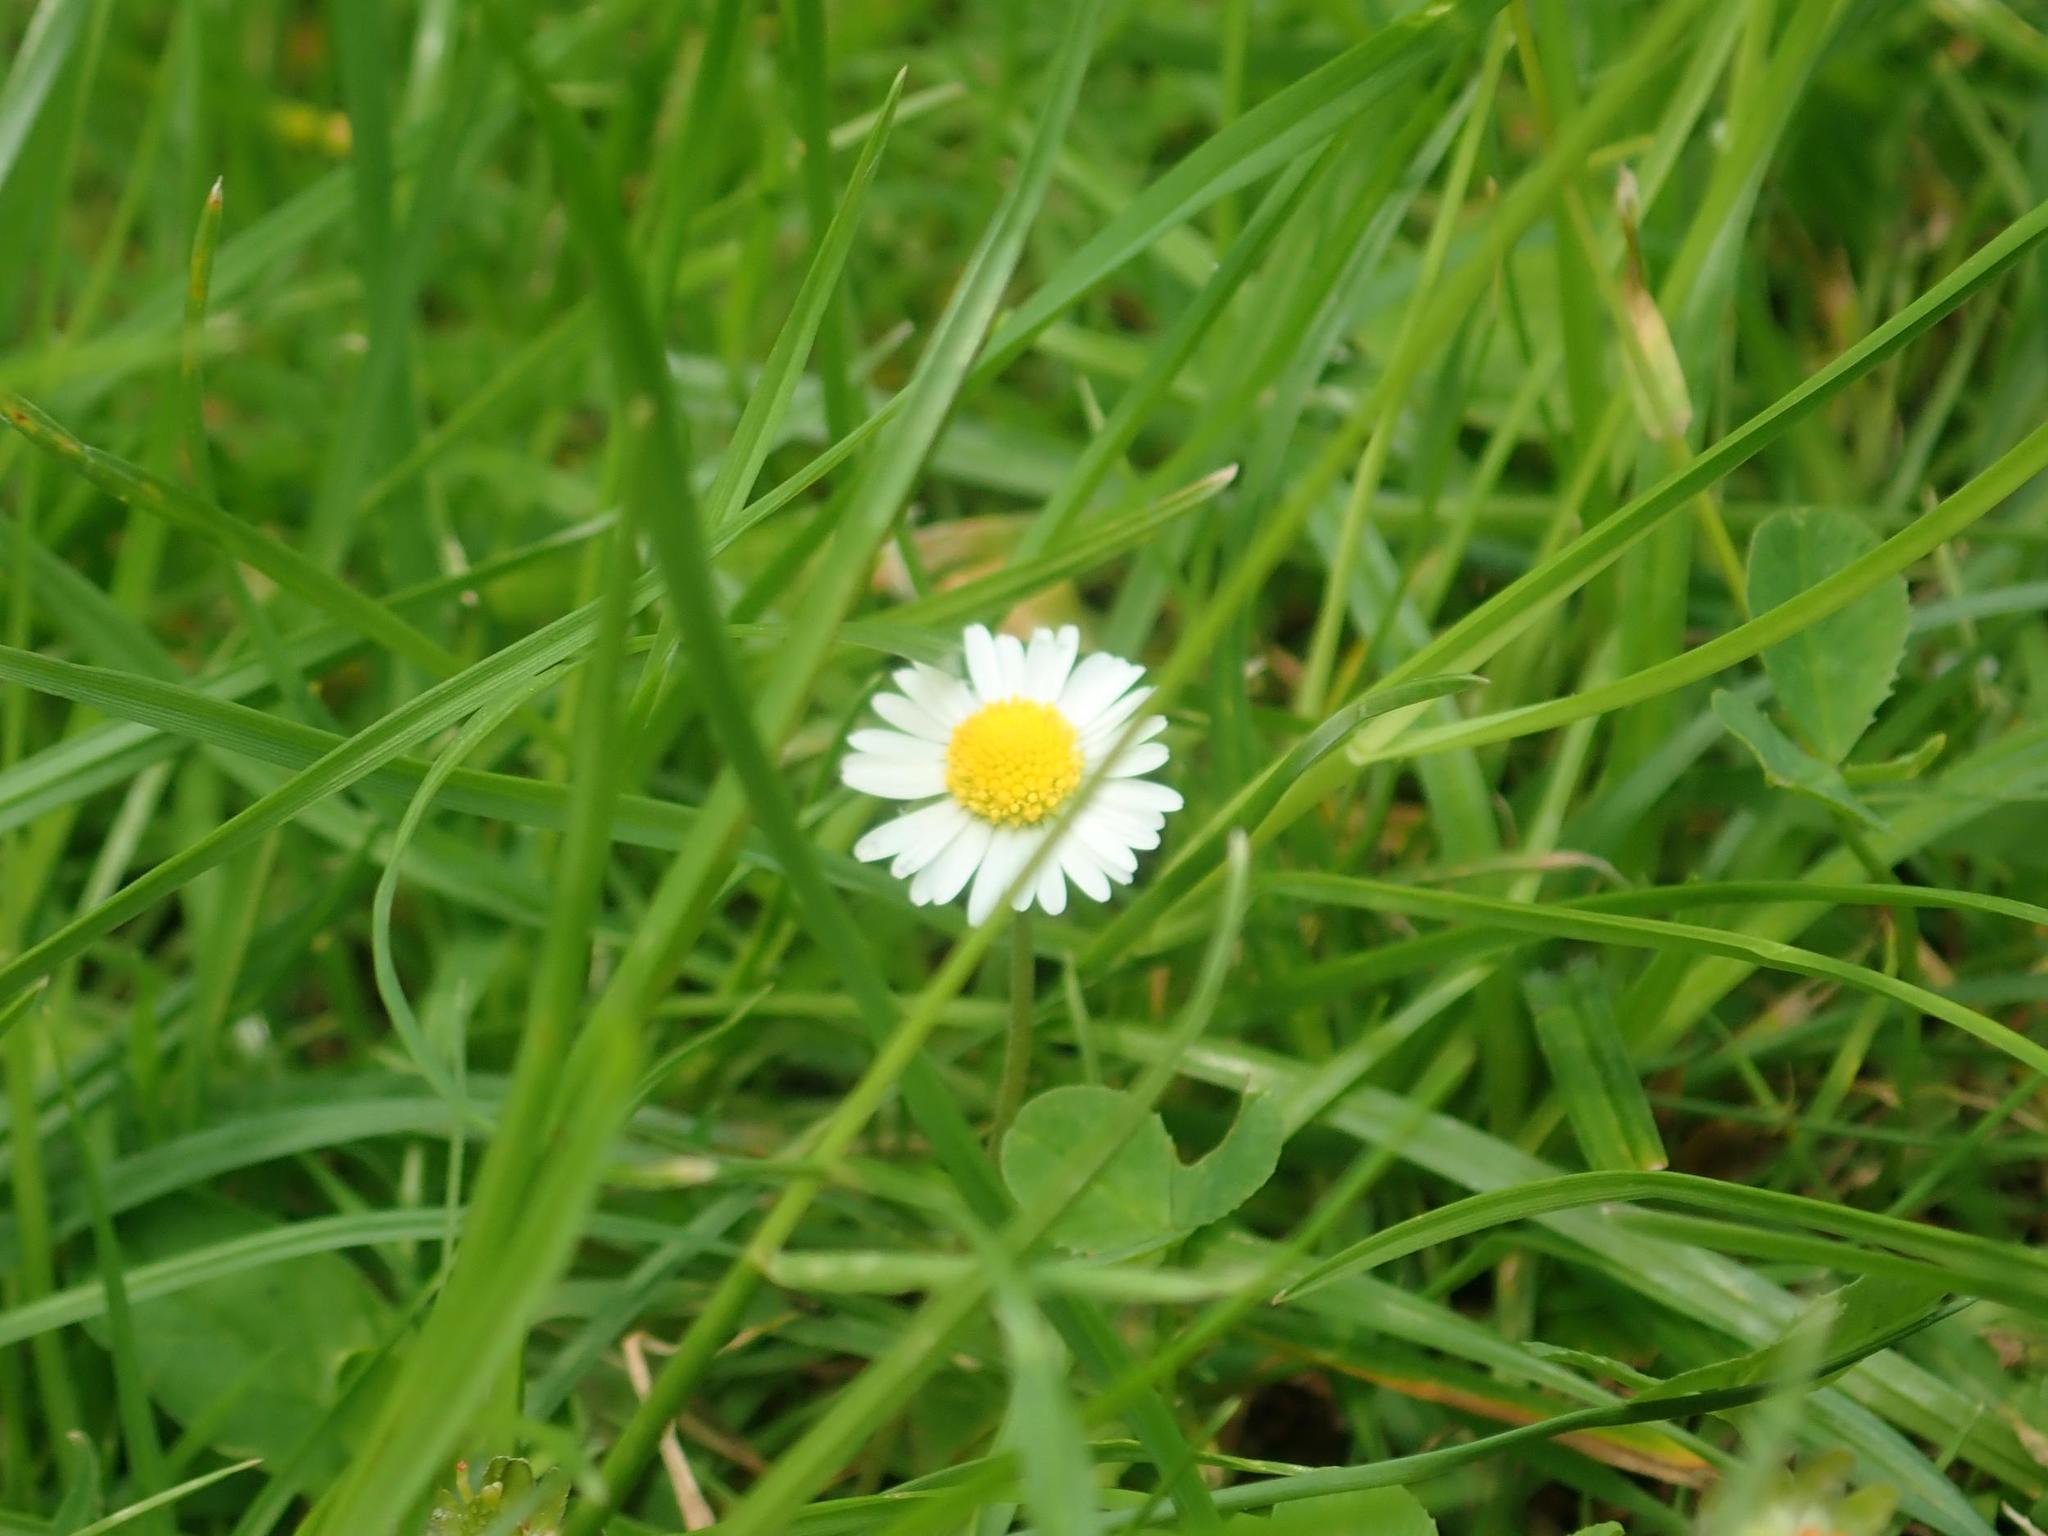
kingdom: Plantae
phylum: Tracheophyta
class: Magnoliopsida
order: Asterales
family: Asteraceae
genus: Bellis
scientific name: Bellis perennis
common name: Lawndaisy
